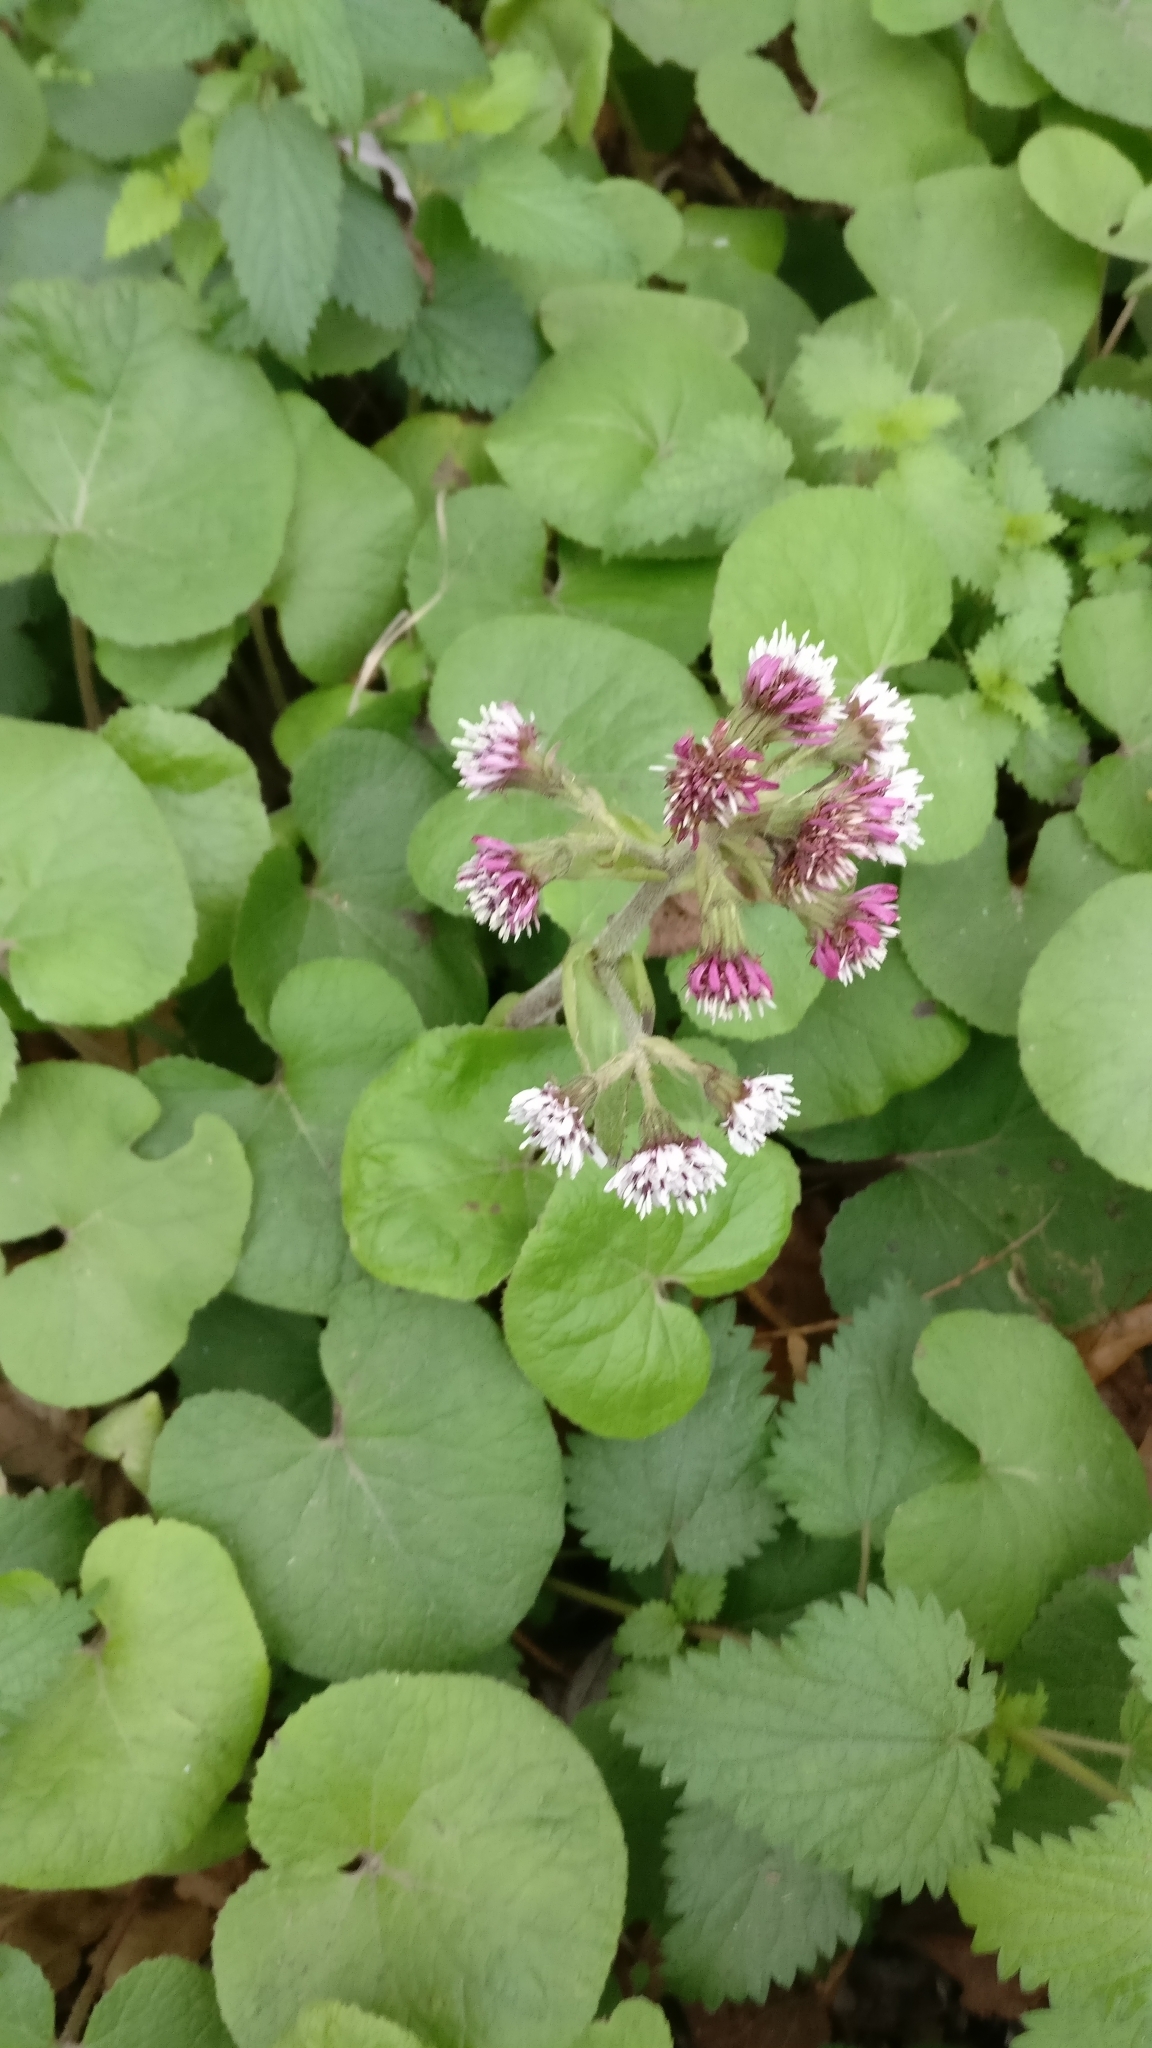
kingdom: Plantae
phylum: Tracheophyta
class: Magnoliopsida
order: Asterales
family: Asteraceae
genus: Petasites
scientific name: Petasites pyrenaicus
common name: Winter heliotrope
